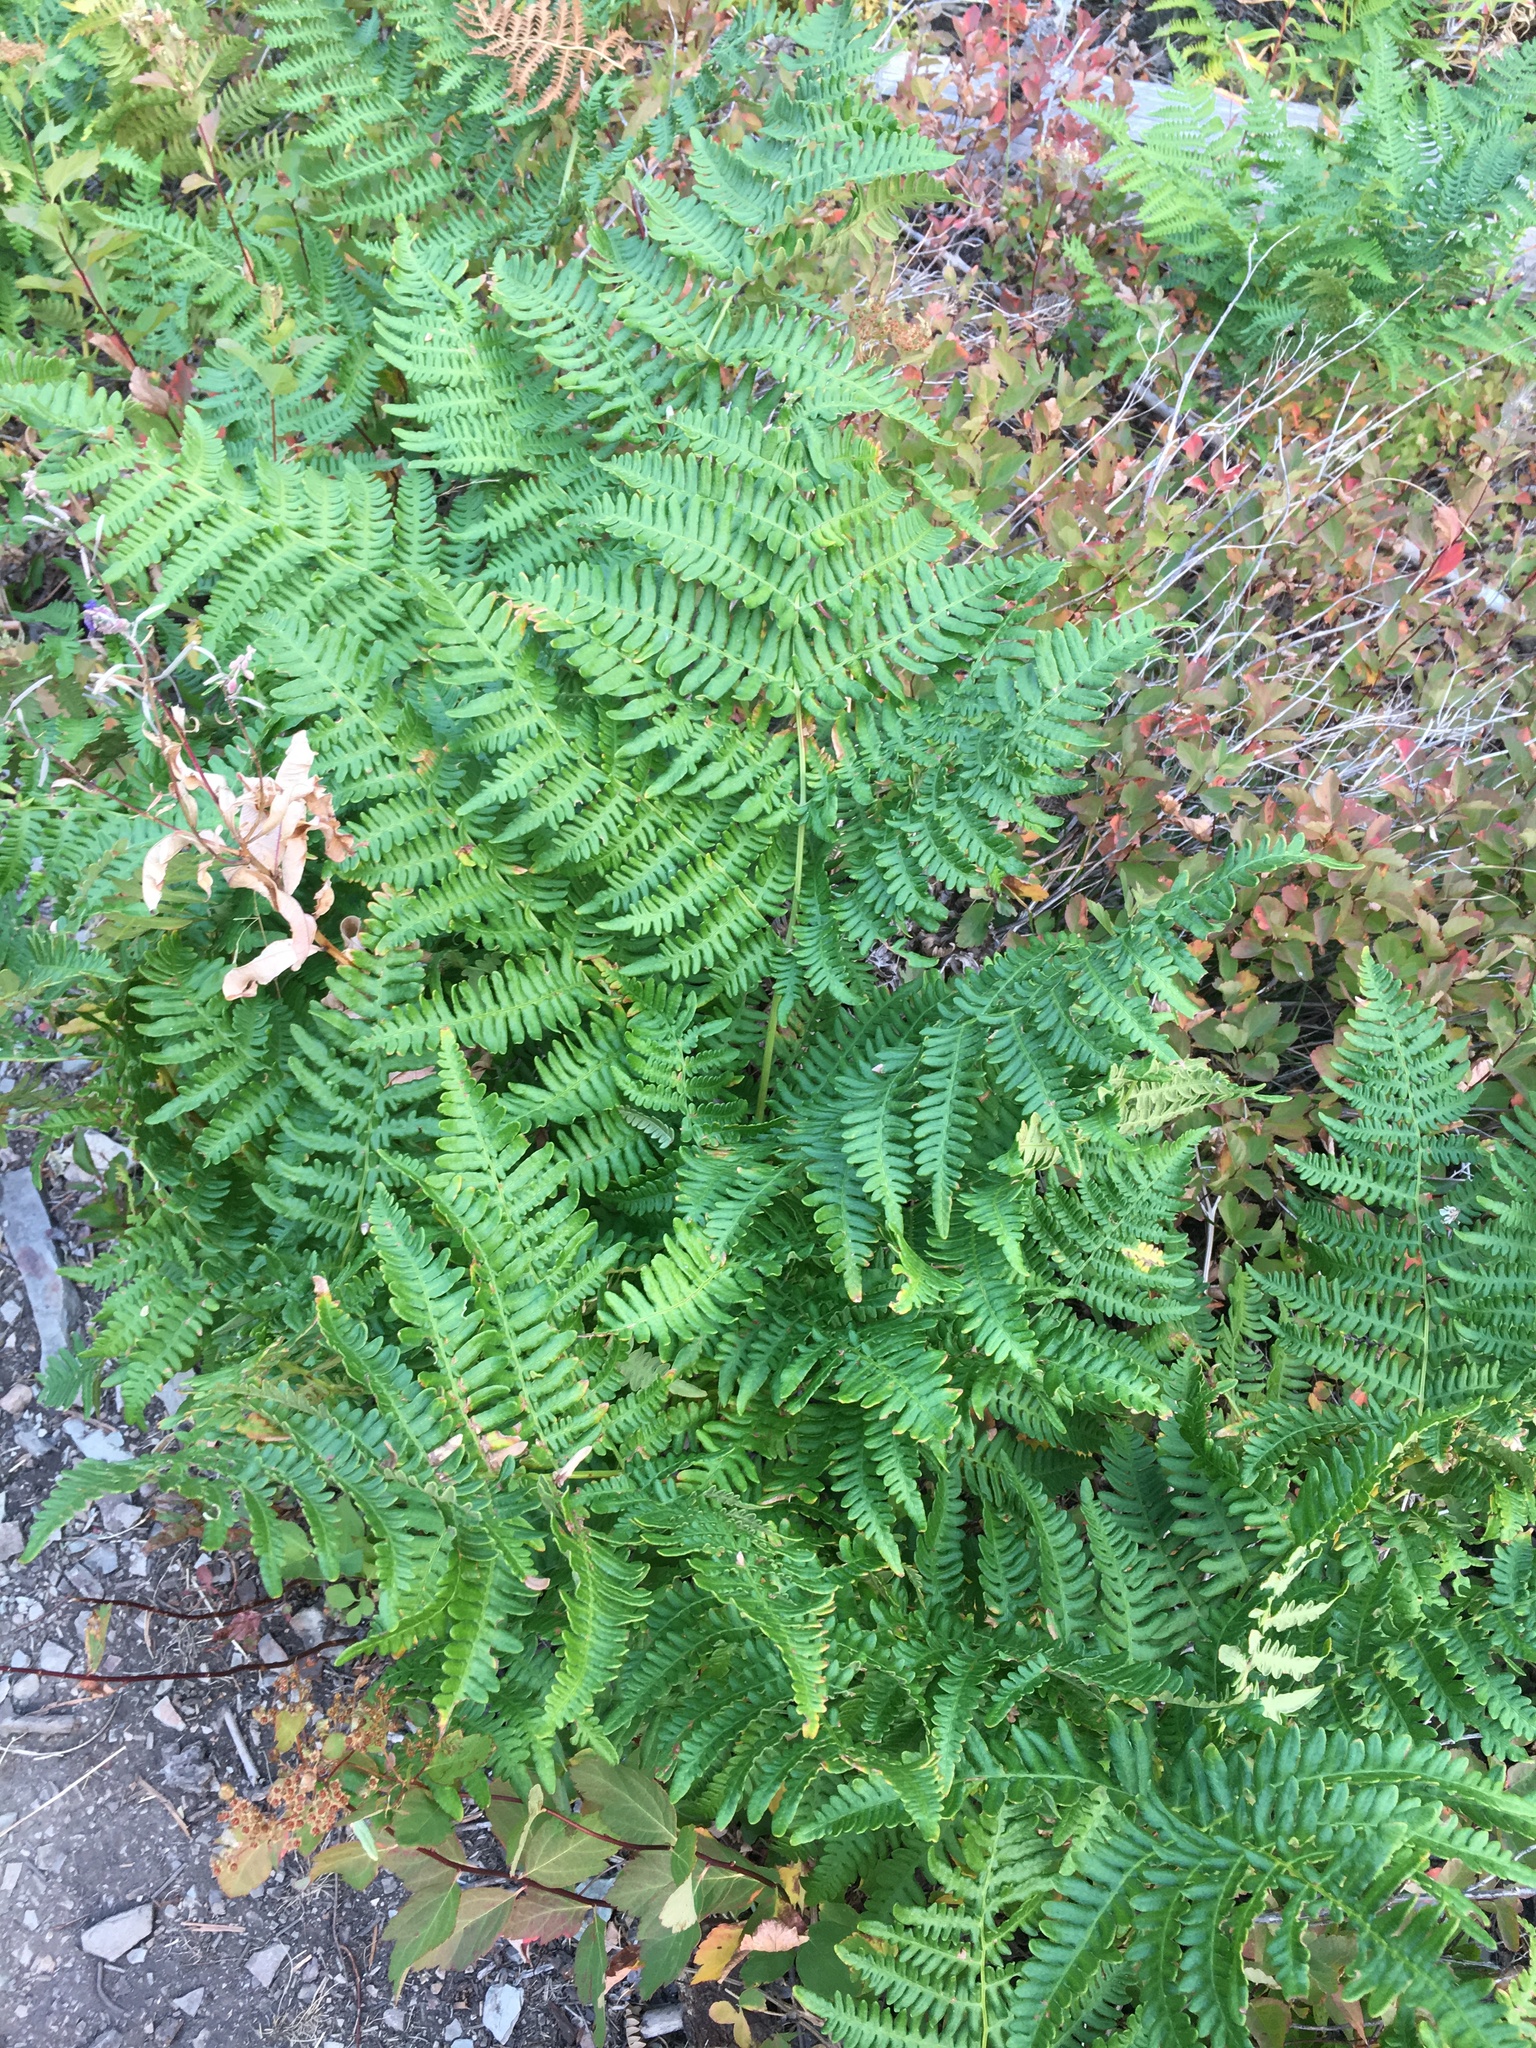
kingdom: Plantae
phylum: Tracheophyta
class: Polypodiopsida
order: Polypodiales
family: Dennstaedtiaceae
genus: Pteridium
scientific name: Pteridium aquilinum
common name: Bracken
